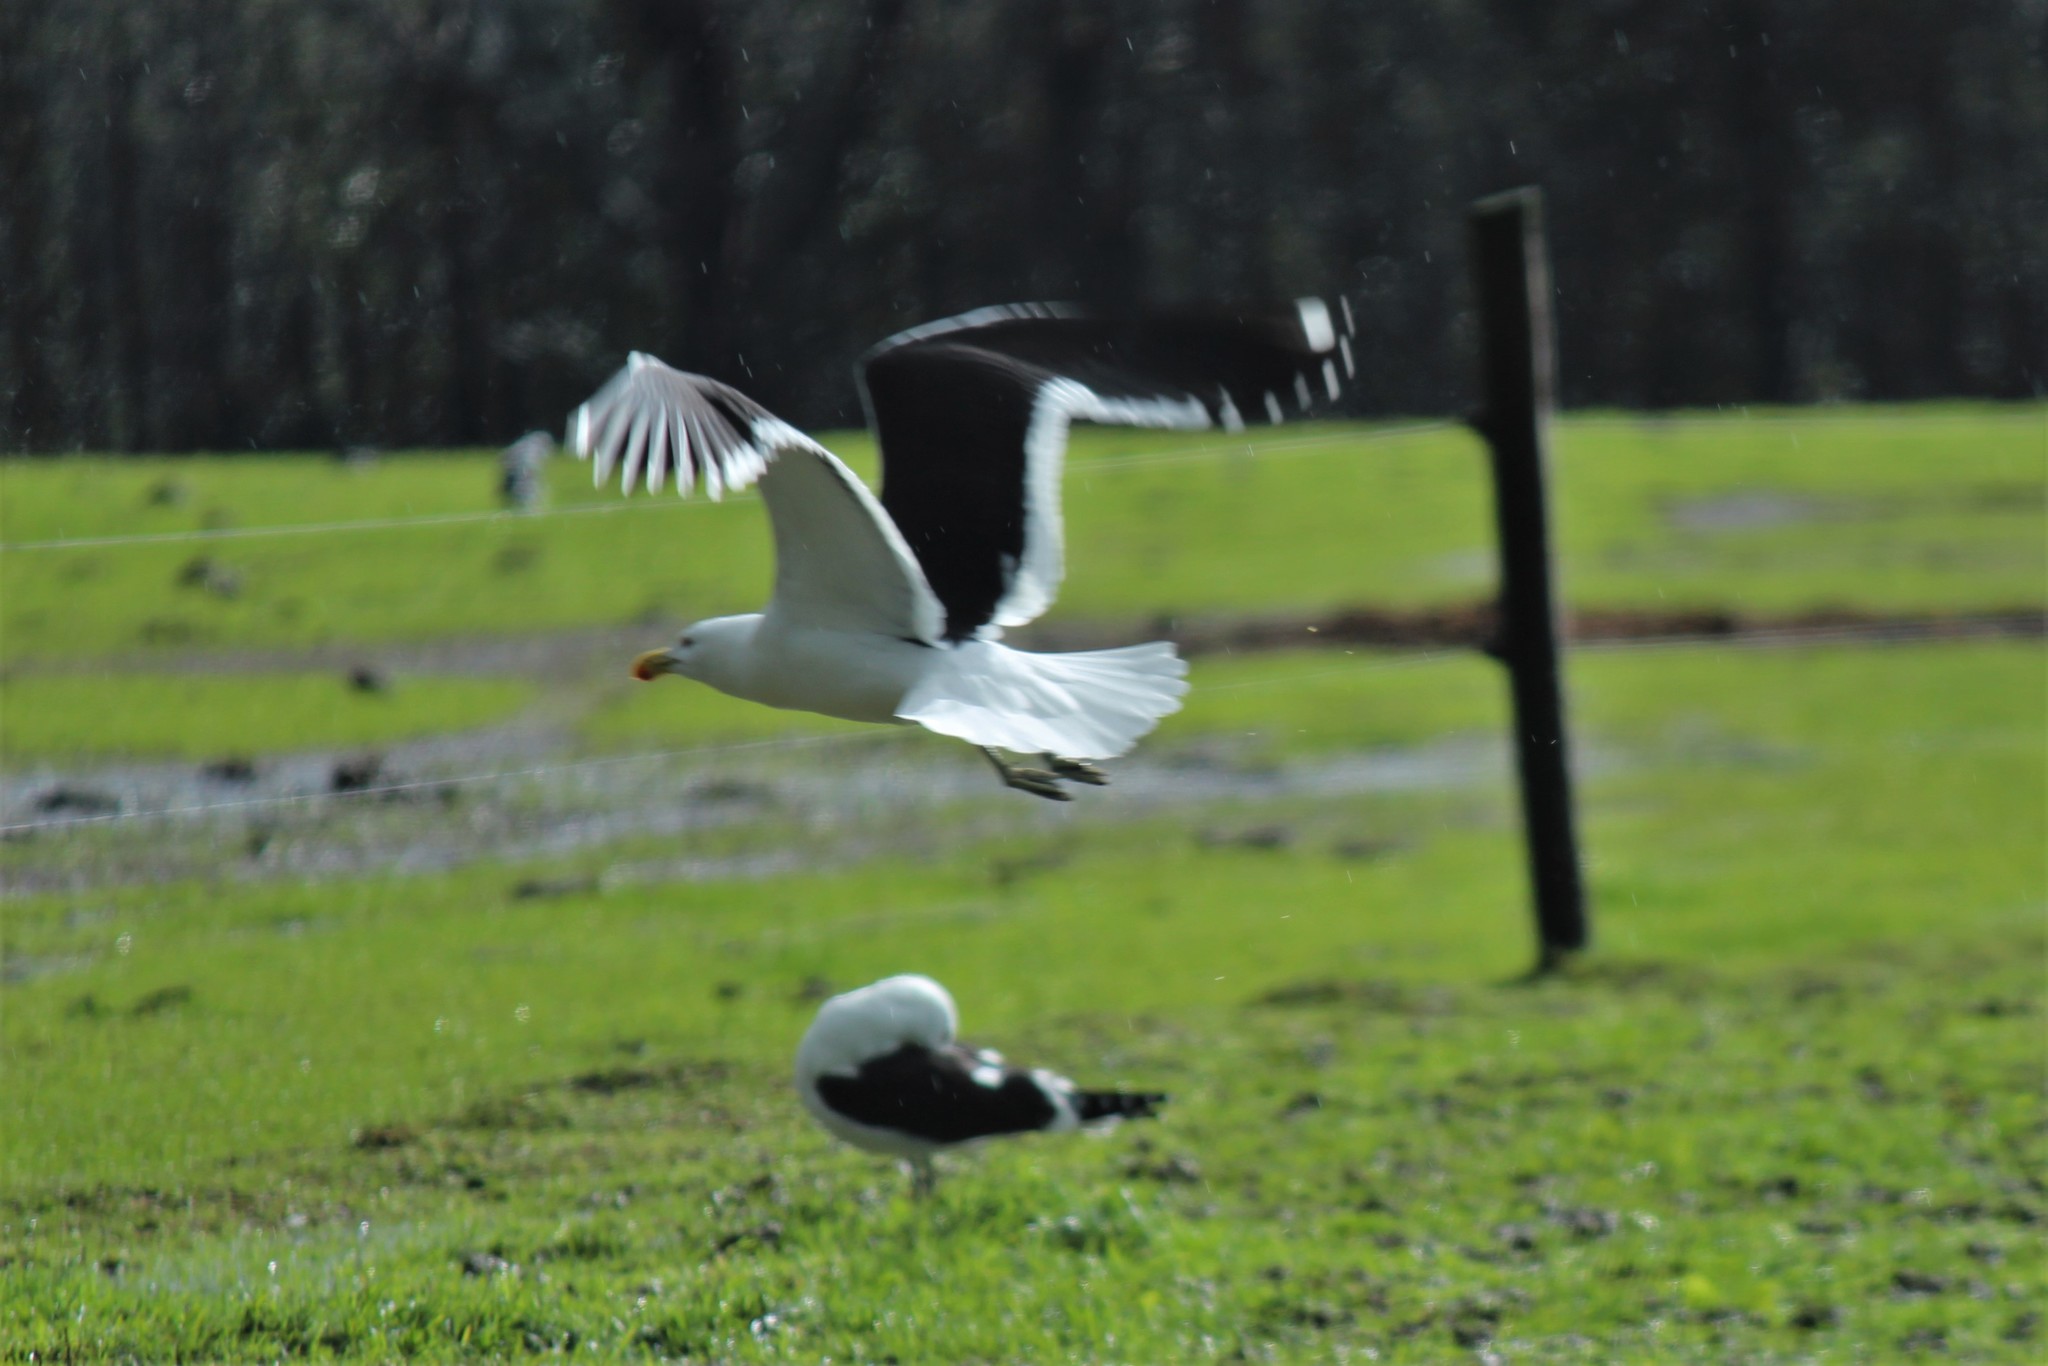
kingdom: Animalia
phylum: Chordata
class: Aves
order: Charadriiformes
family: Laridae
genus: Larus
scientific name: Larus dominicanus
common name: Kelp gull
